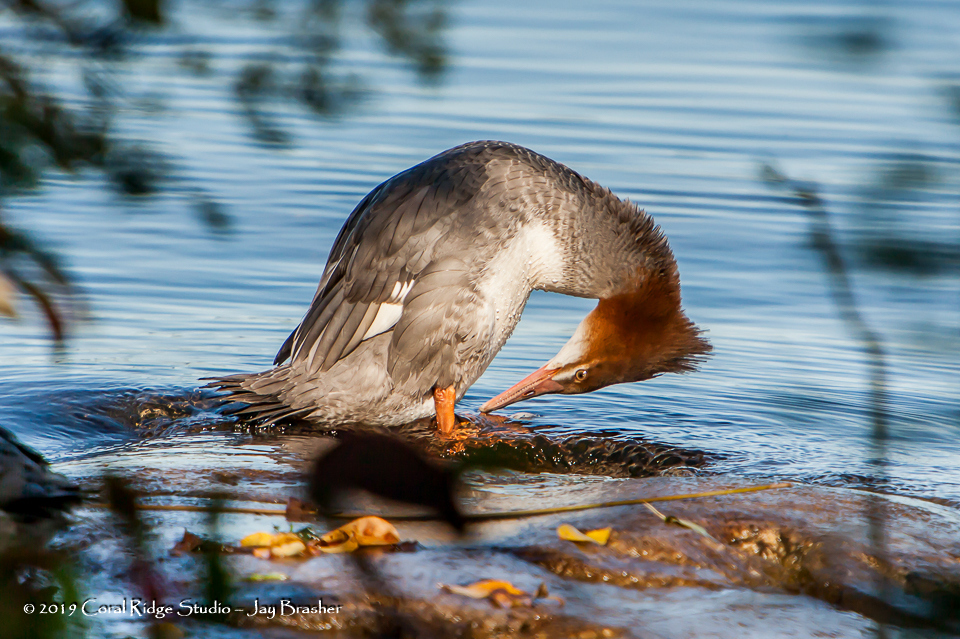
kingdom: Animalia
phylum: Chordata
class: Aves
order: Anseriformes
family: Anatidae
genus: Mergus
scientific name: Mergus merganser
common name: Common merganser
